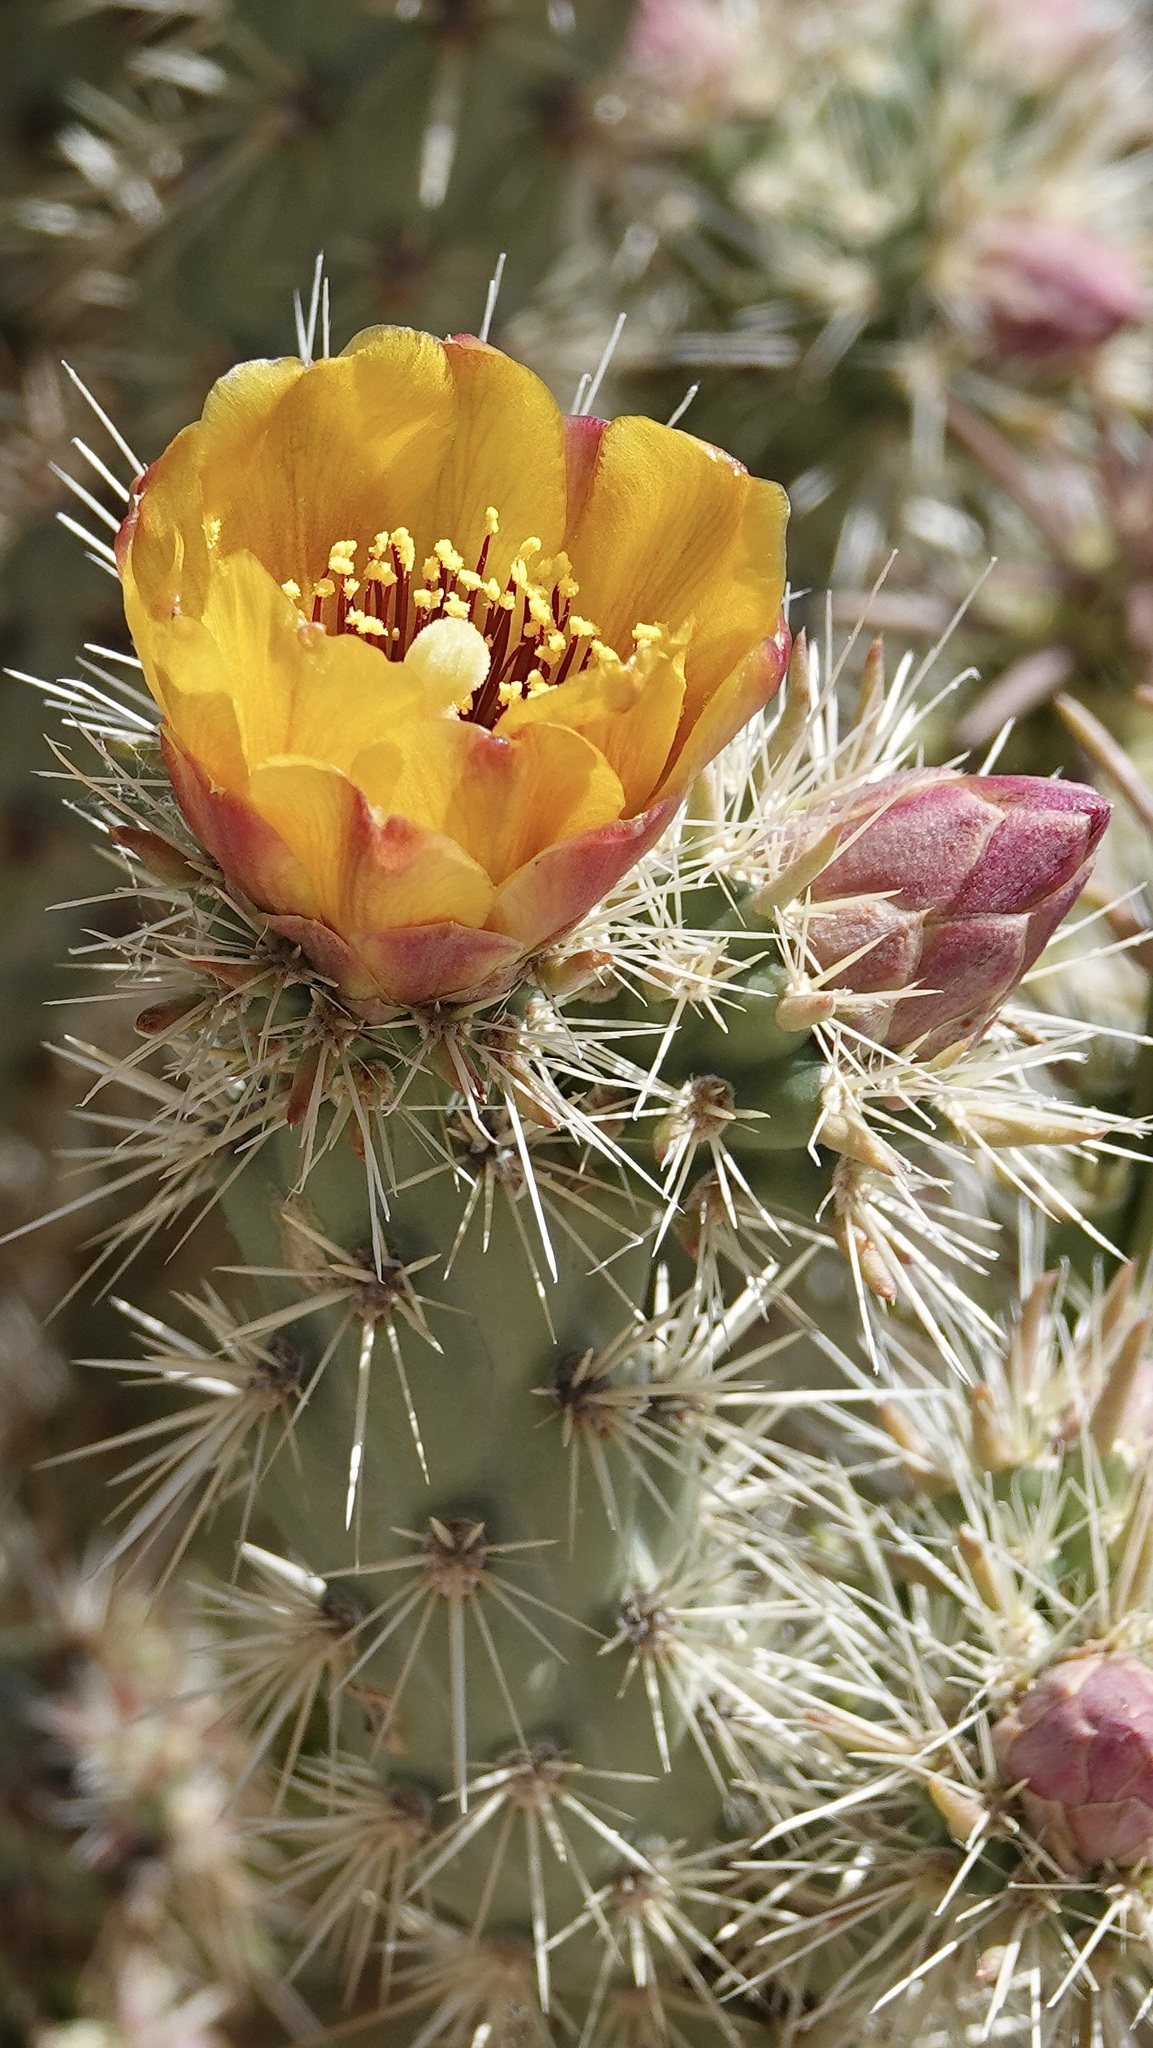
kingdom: Plantae
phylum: Tracheophyta
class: Magnoliopsida
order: Caryophyllales
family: Cactaceae
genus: Cylindropuntia
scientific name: Cylindropuntia acanthocarpa
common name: Buckhorn cholla
